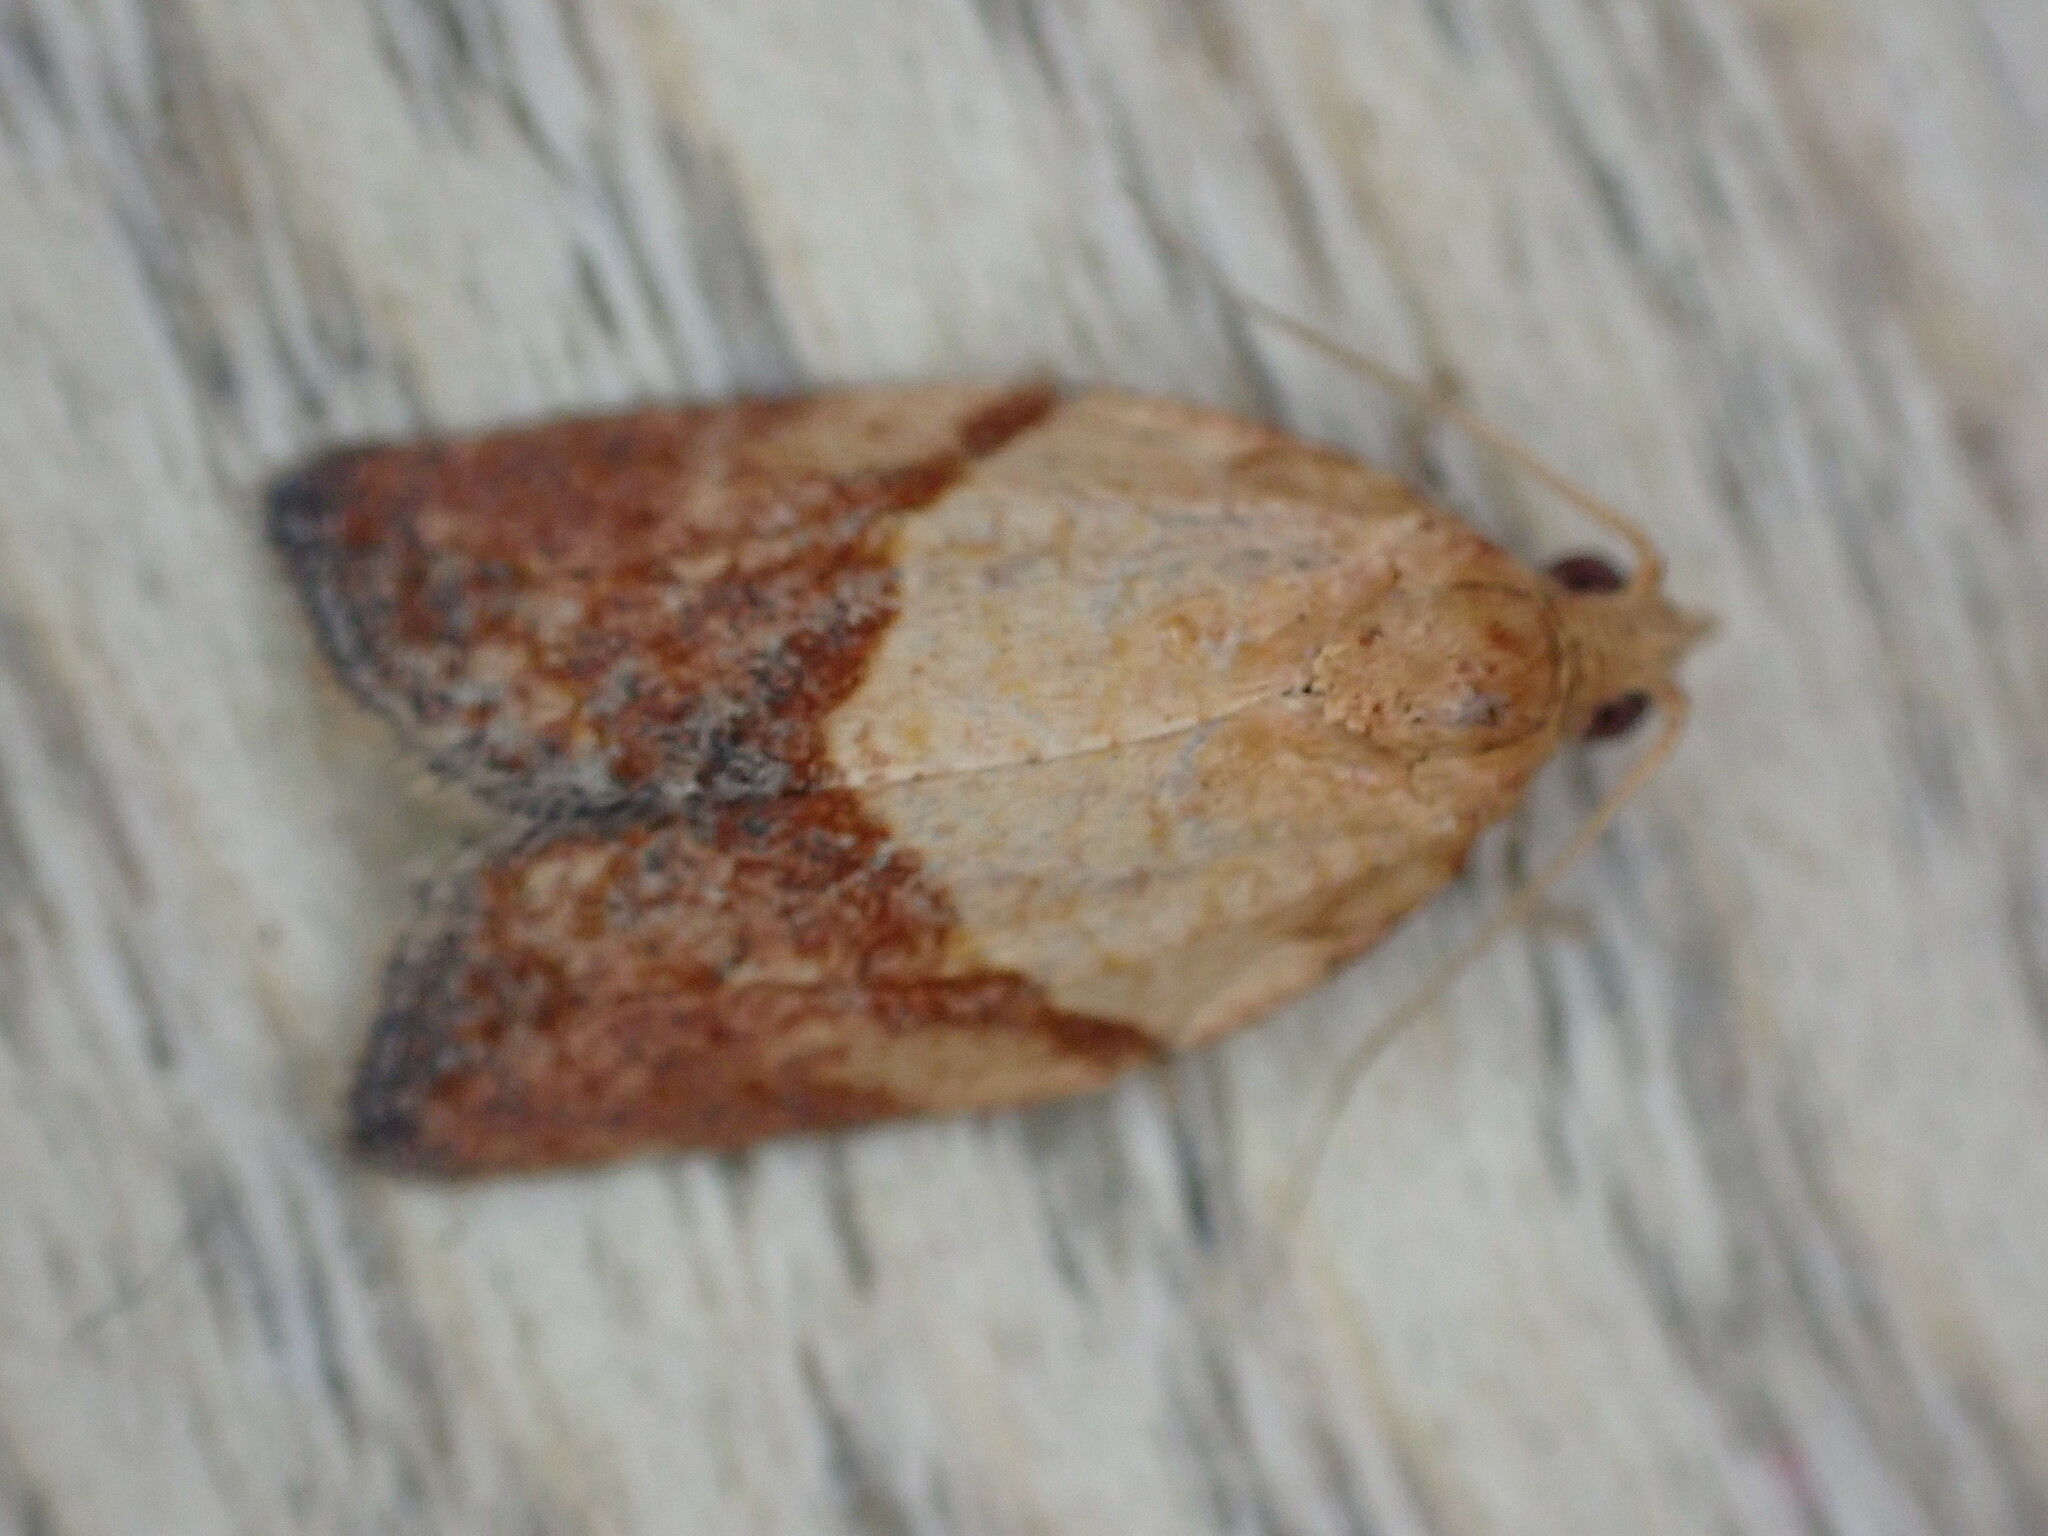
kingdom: Animalia
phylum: Arthropoda
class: Insecta
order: Lepidoptera
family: Tortricidae
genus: Epiphyas
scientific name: Epiphyas postvittana
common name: Light brown apple moth
